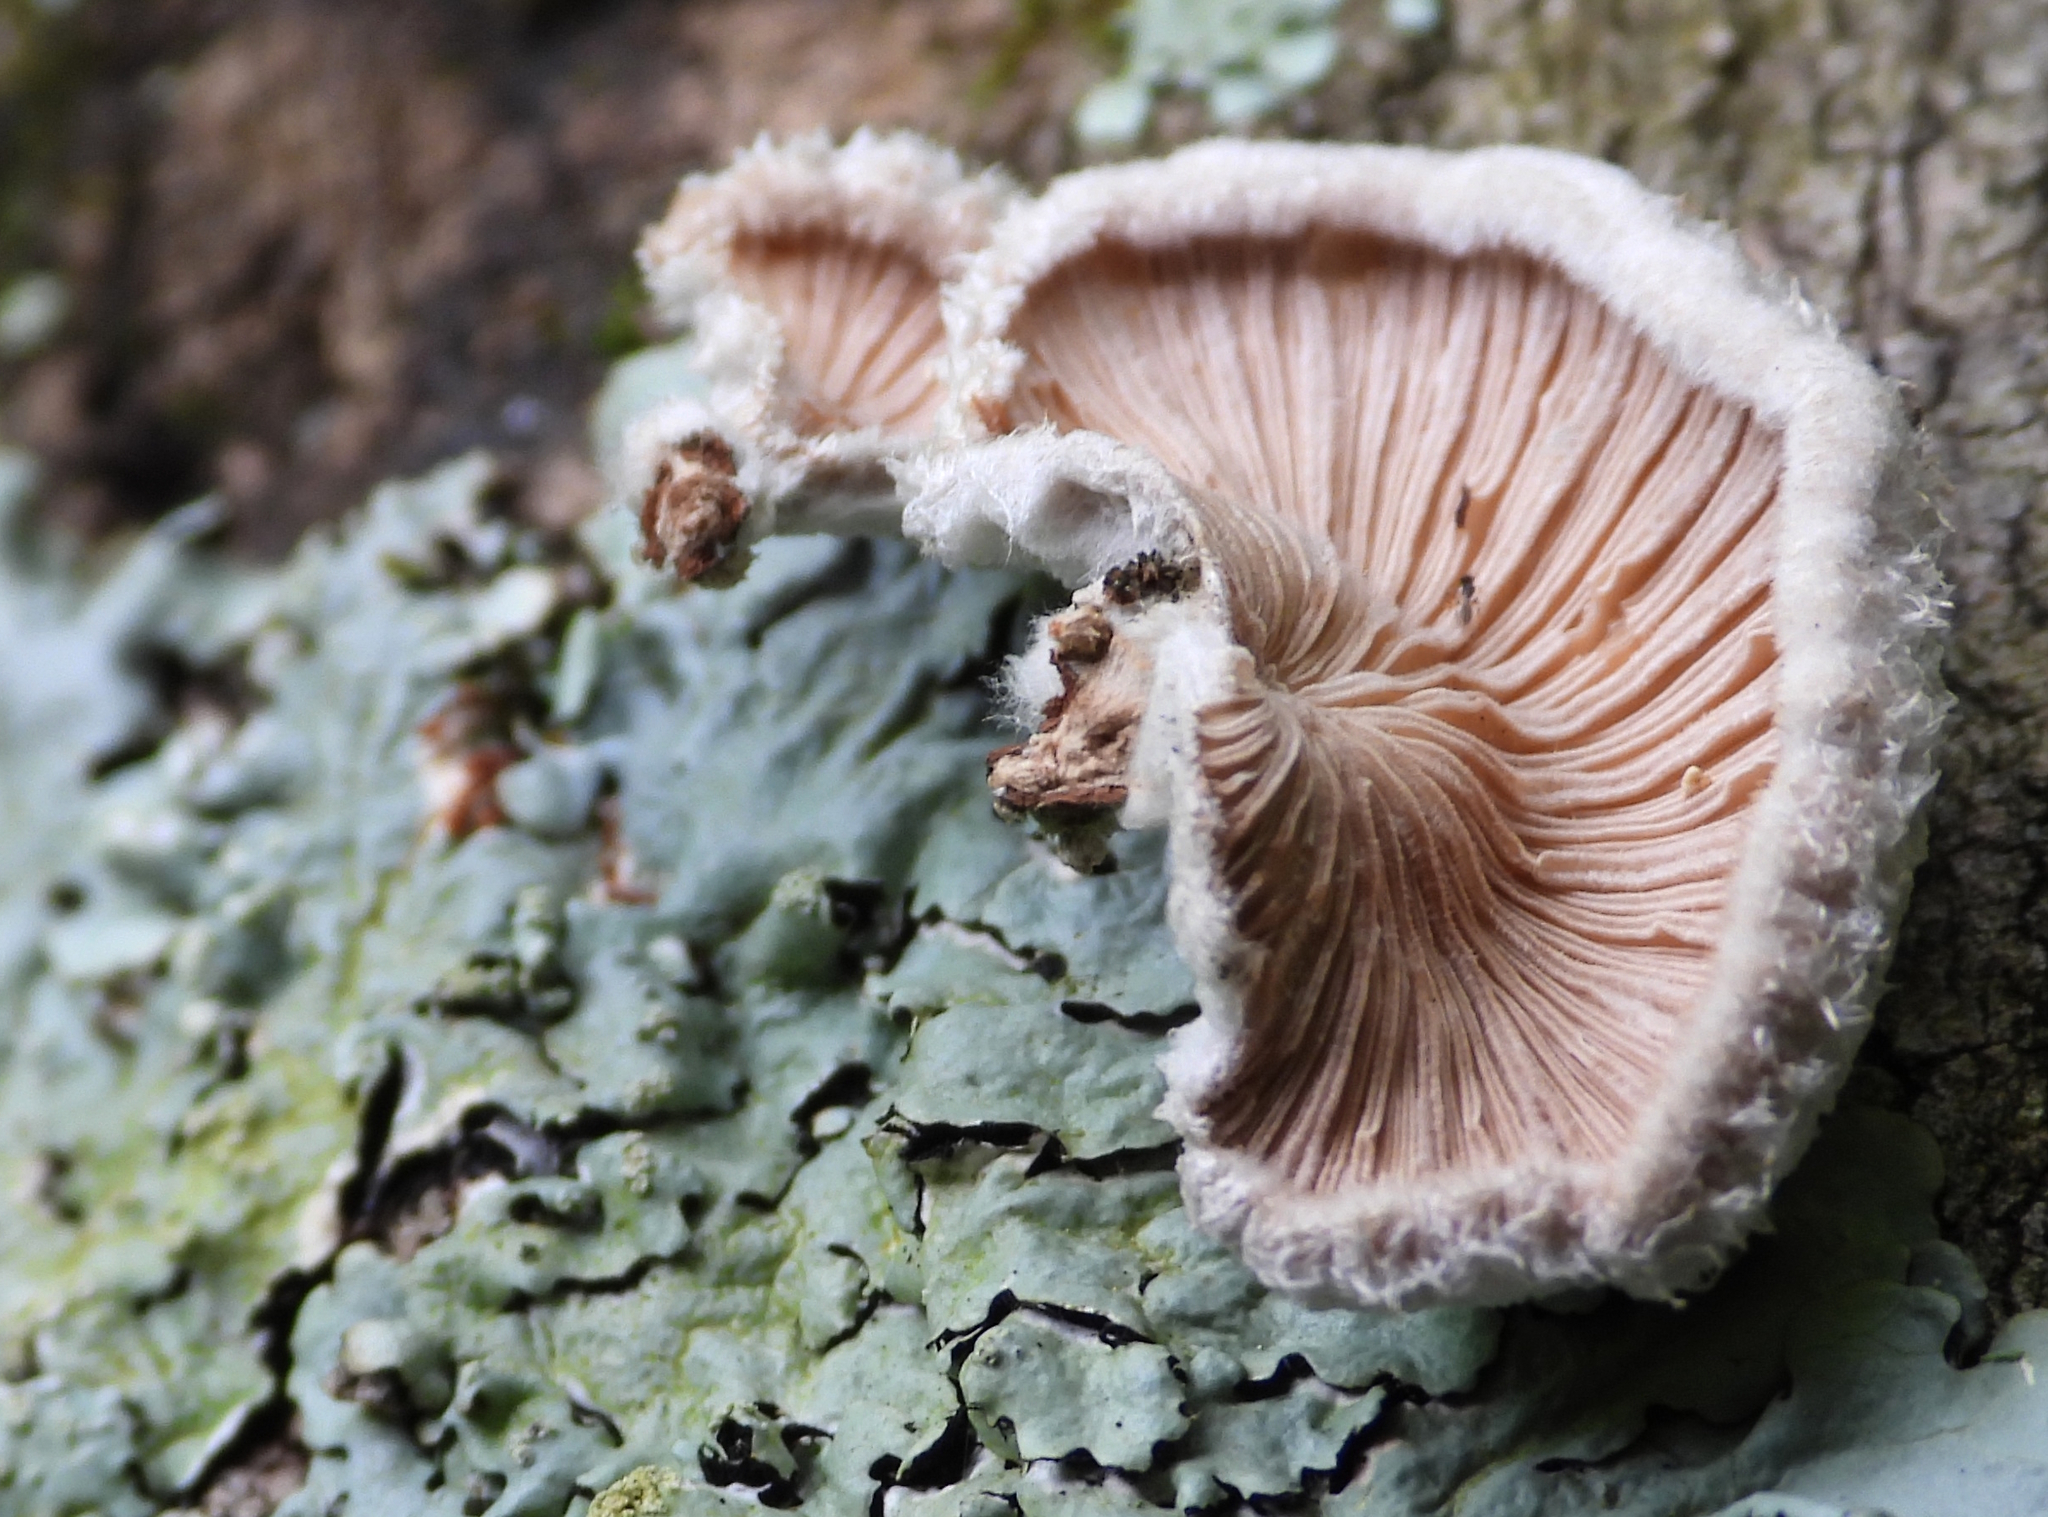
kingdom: Fungi
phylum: Basidiomycota
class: Agaricomycetes
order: Agaricales
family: Schizophyllaceae
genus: Schizophyllum
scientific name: Schizophyllum commune
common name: Common porecrust
